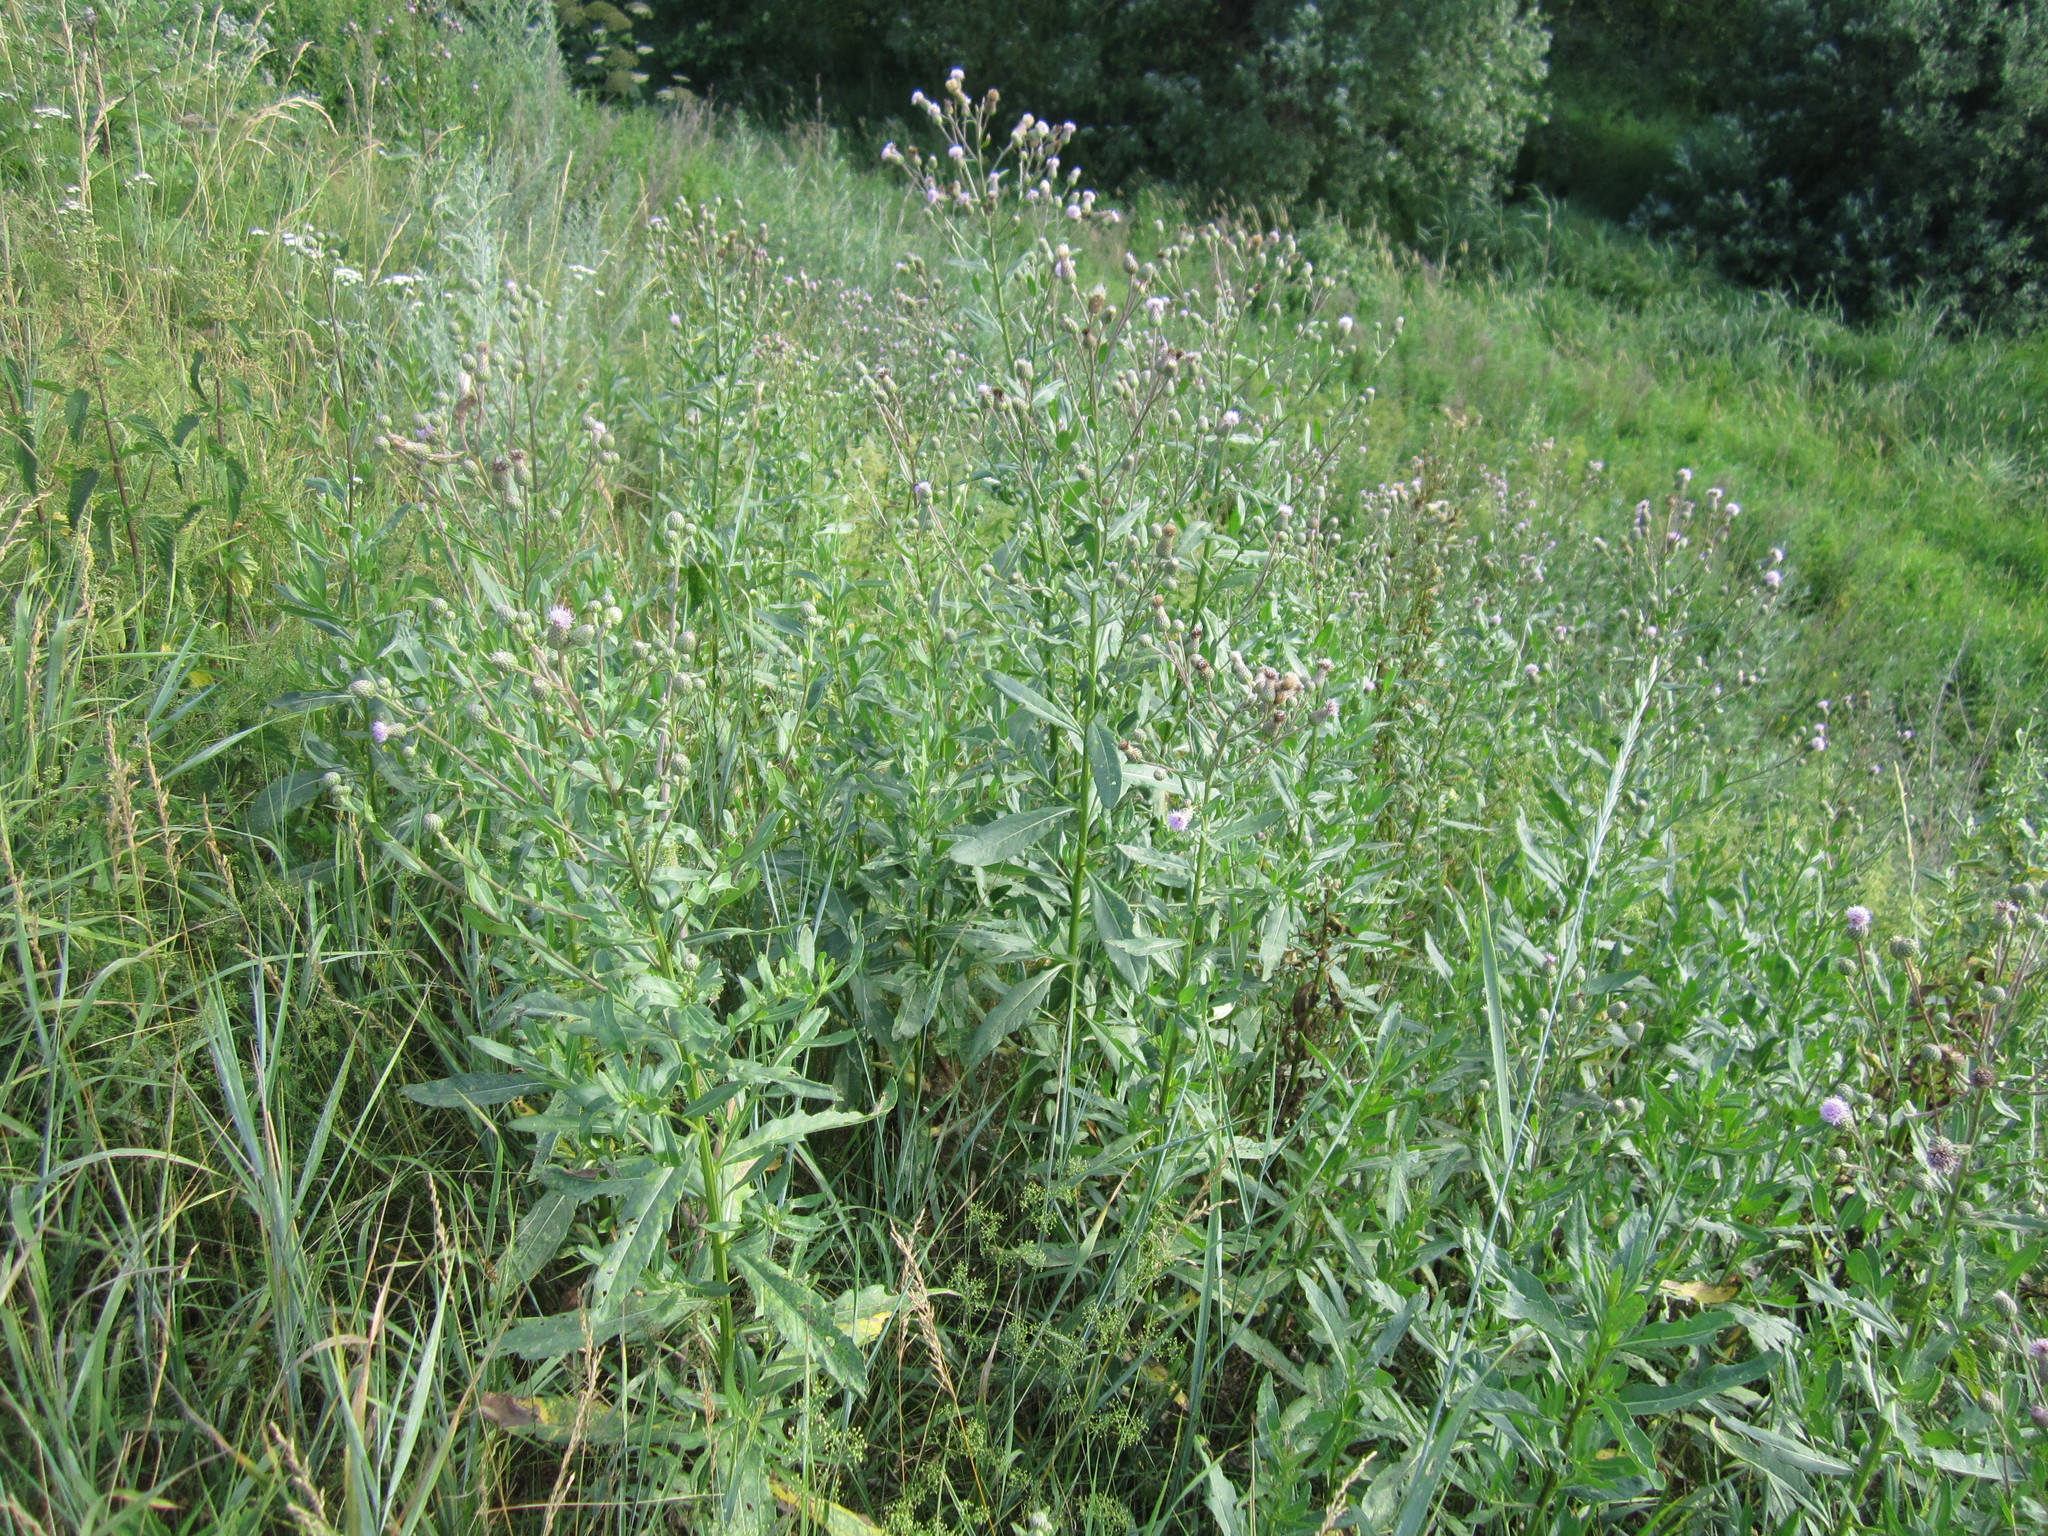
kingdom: Plantae
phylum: Tracheophyta
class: Magnoliopsida
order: Asterales
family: Asteraceae
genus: Cirsium
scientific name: Cirsium arvense
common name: Creeping thistle
